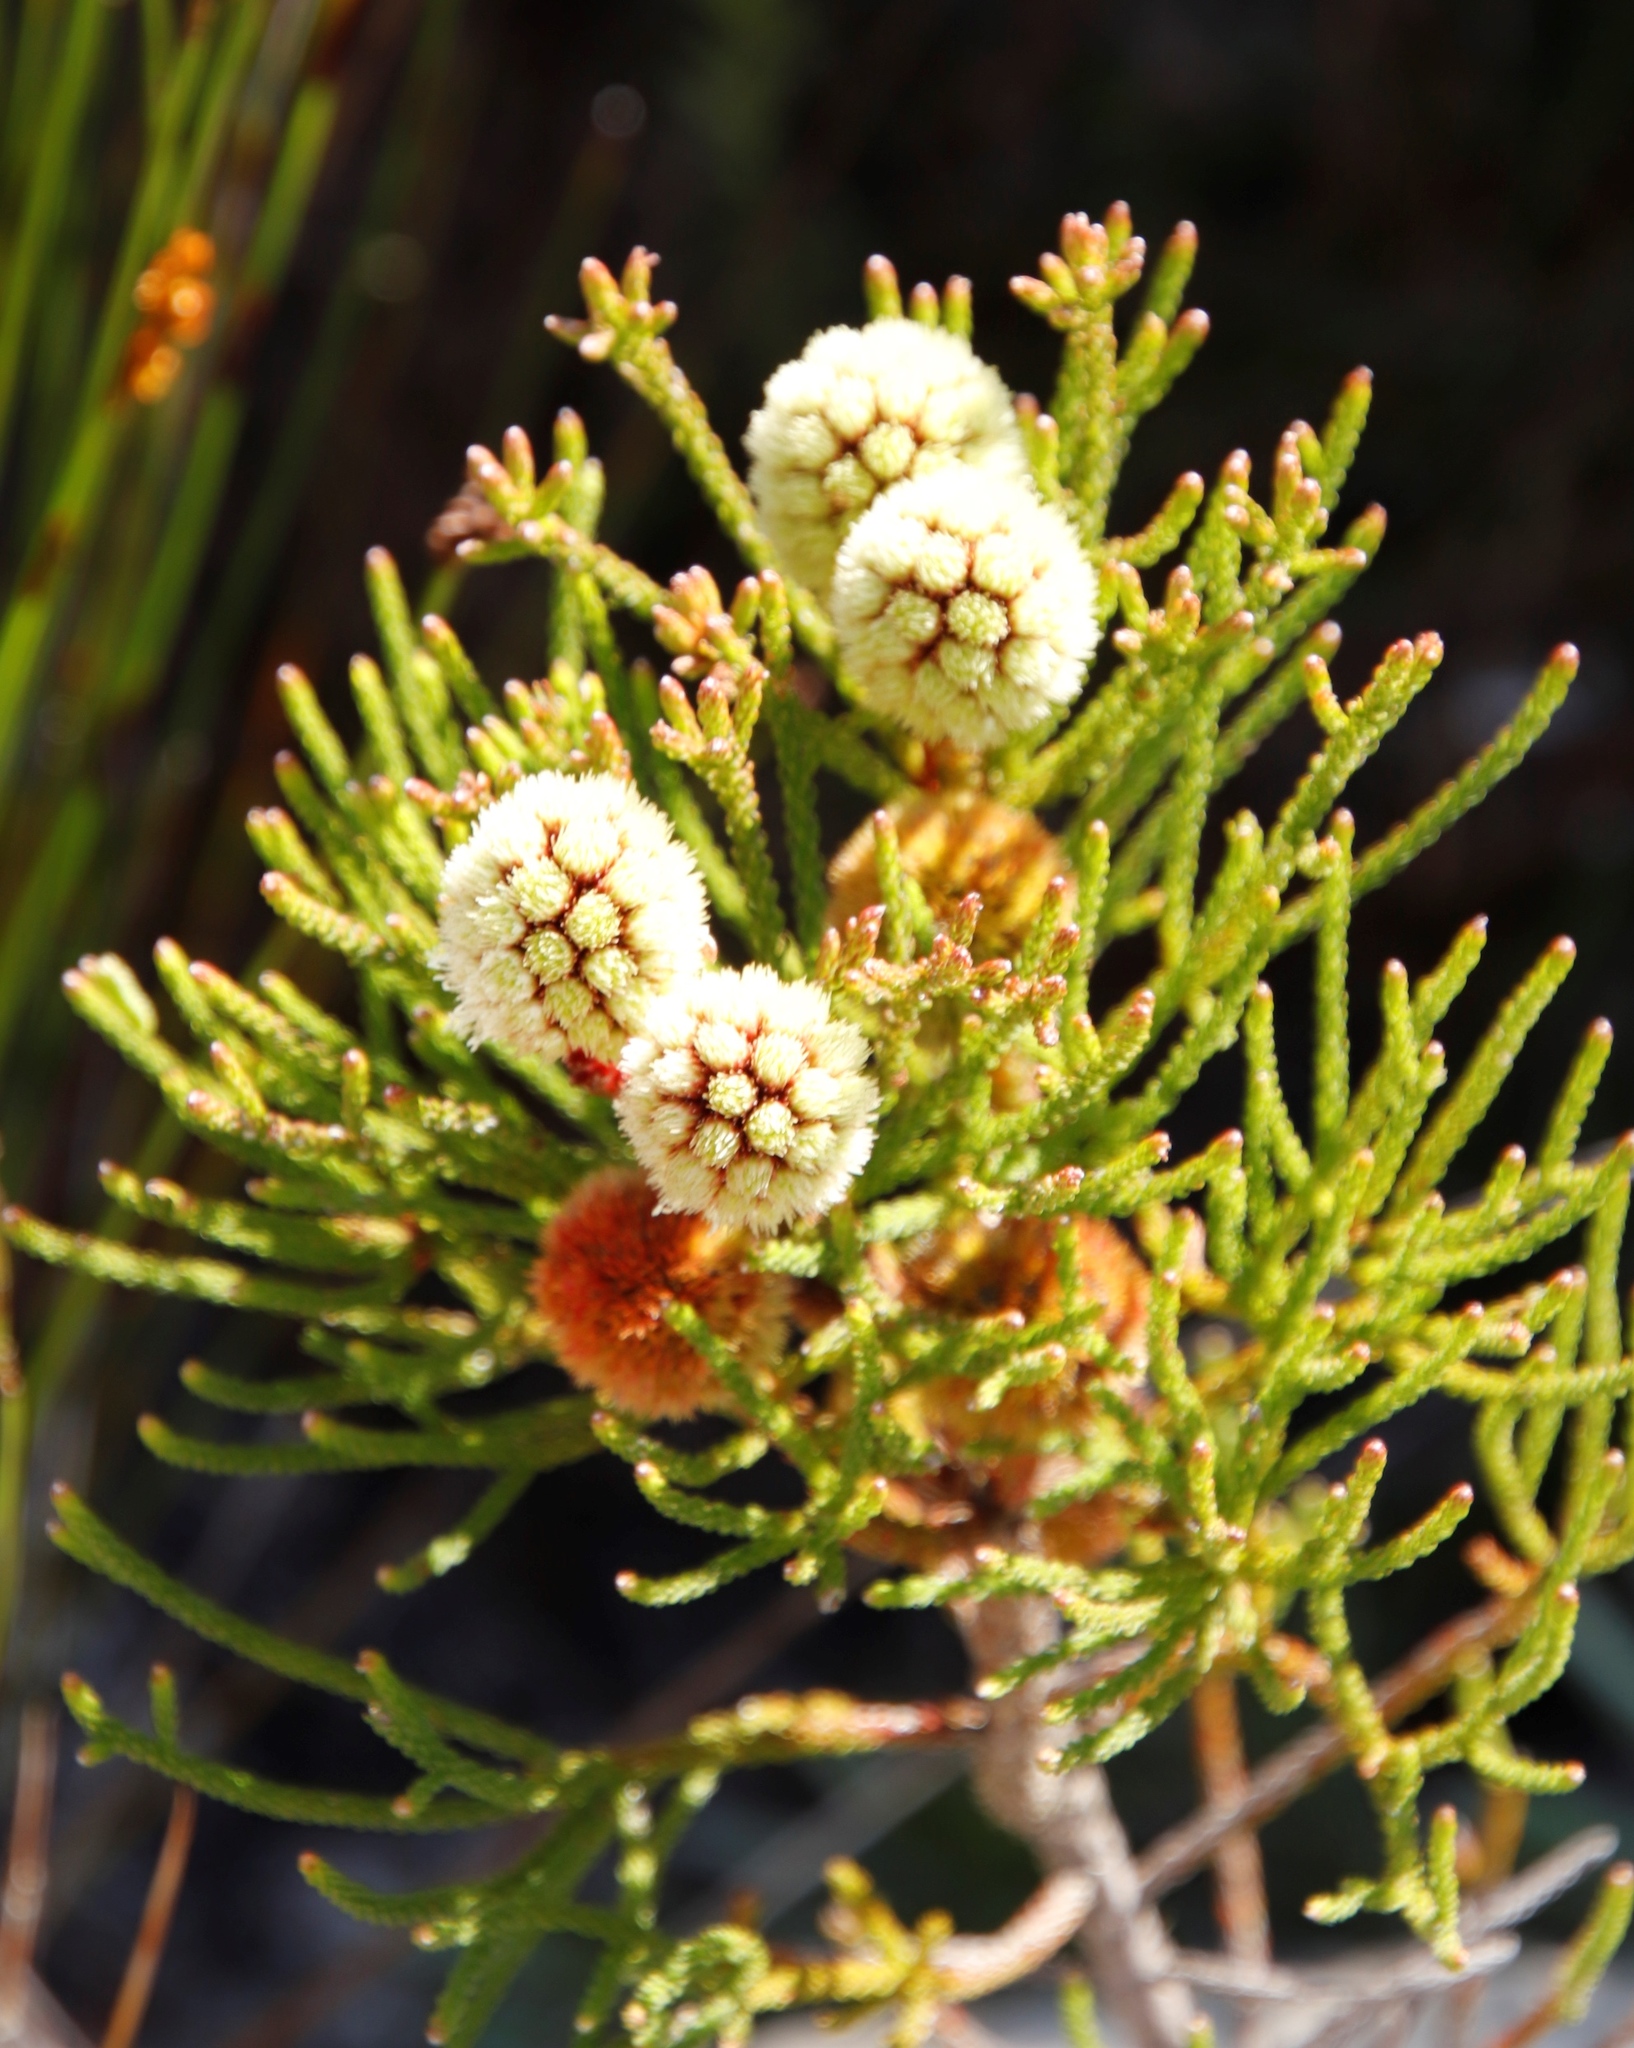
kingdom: Plantae
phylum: Tracheophyta
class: Magnoliopsida
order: Bruniales
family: Bruniaceae
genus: Brunia
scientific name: Brunia fragarioides
